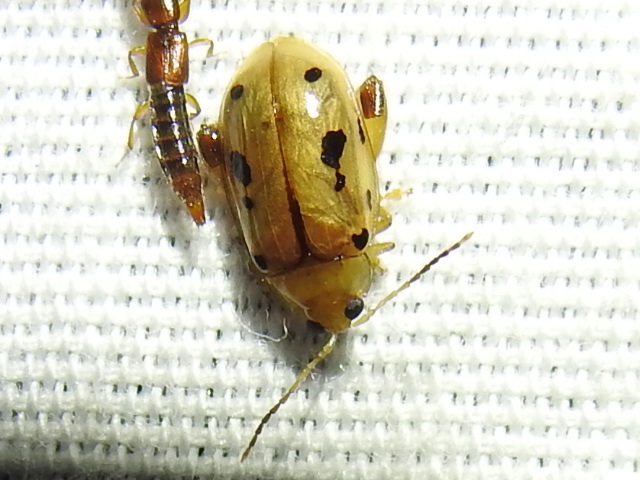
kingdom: Animalia
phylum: Arthropoda
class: Insecta
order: Coleoptera
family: Chrysomelidae
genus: Capraita
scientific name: Capraita nigrosignata
